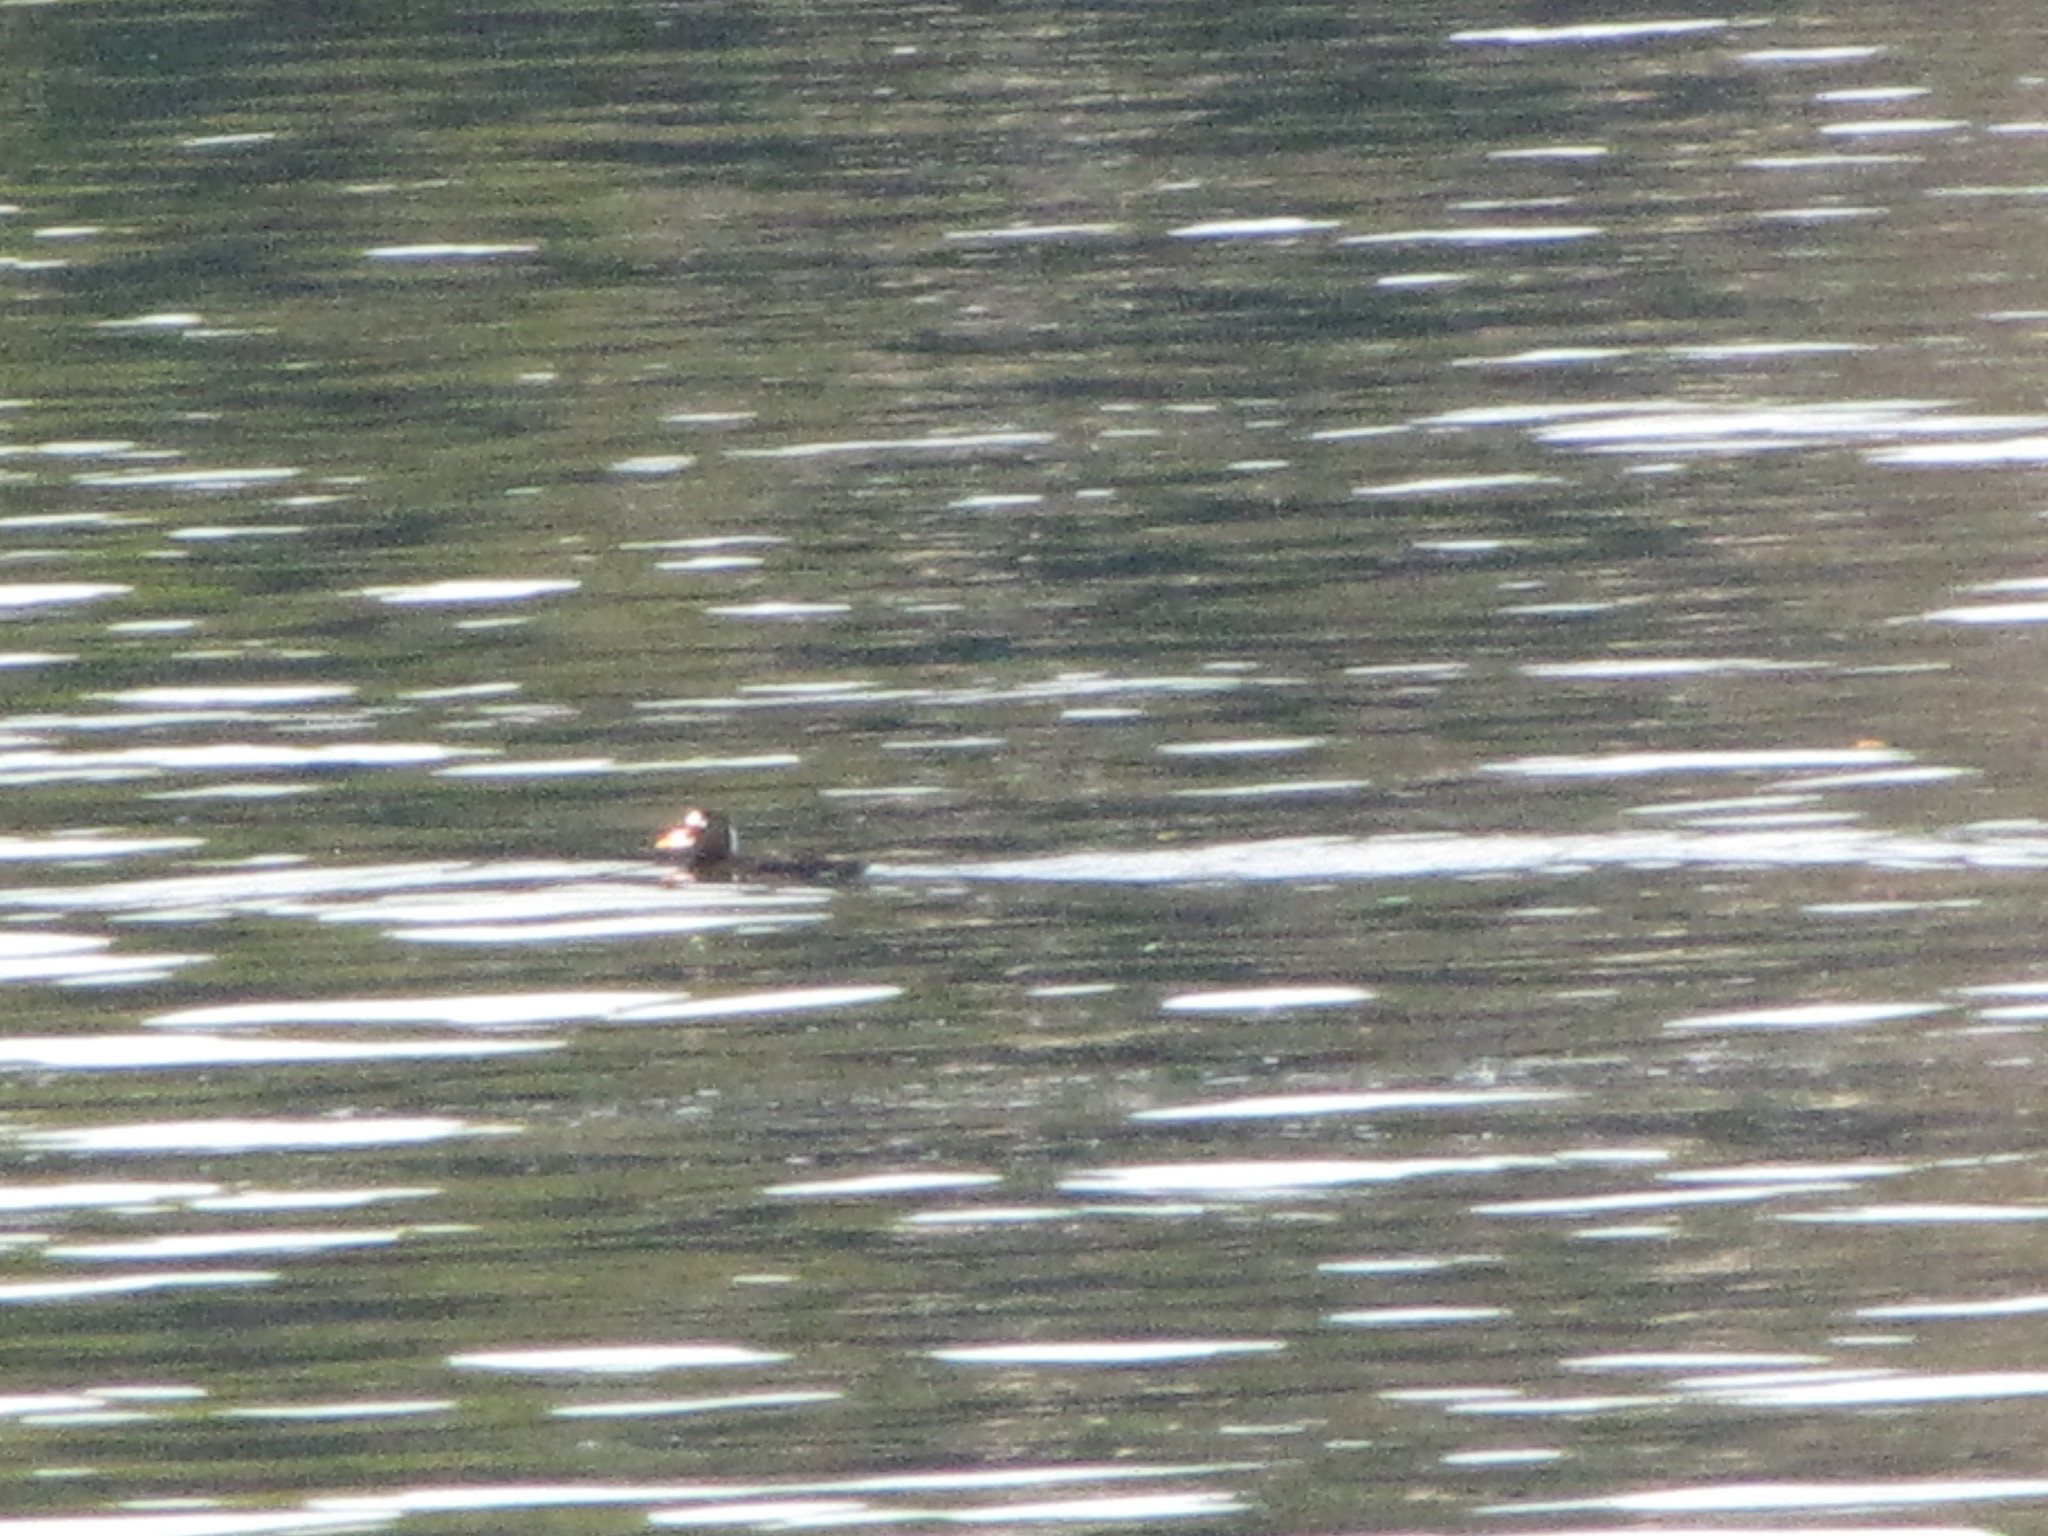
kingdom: Animalia
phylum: Chordata
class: Aves
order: Anseriformes
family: Anatidae
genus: Melanitta
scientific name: Melanitta perspicillata
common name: Surf scoter
